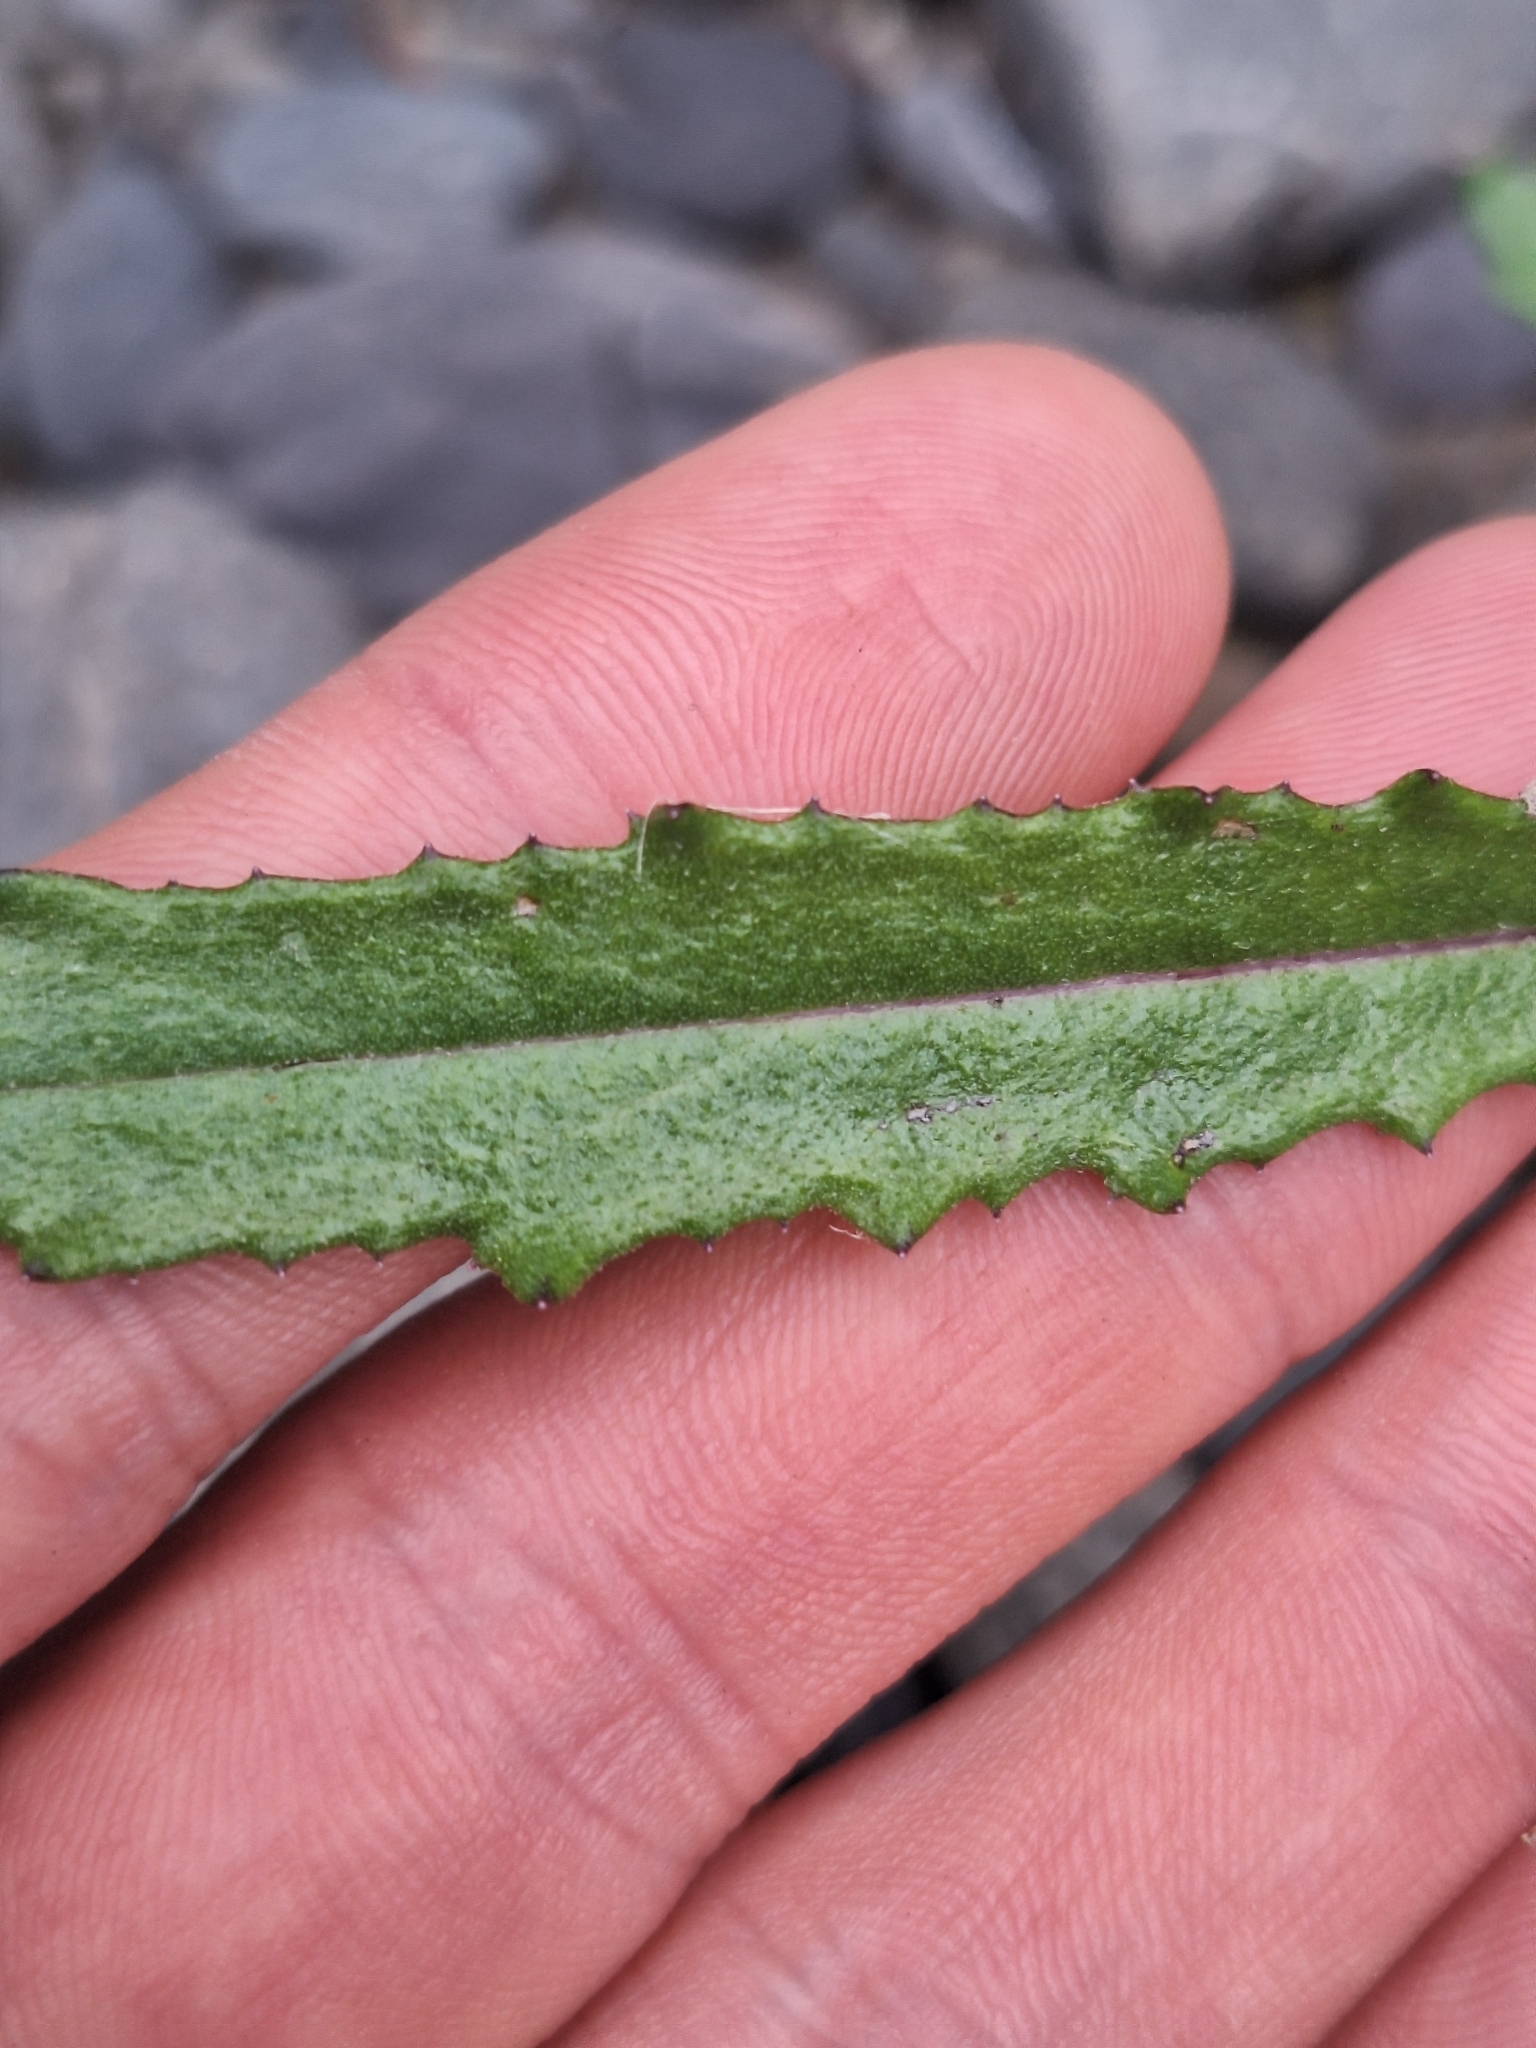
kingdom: Plantae
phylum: Tracheophyta
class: Magnoliopsida
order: Asterales
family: Asteraceae
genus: Senecio
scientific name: Senecio diaschides
